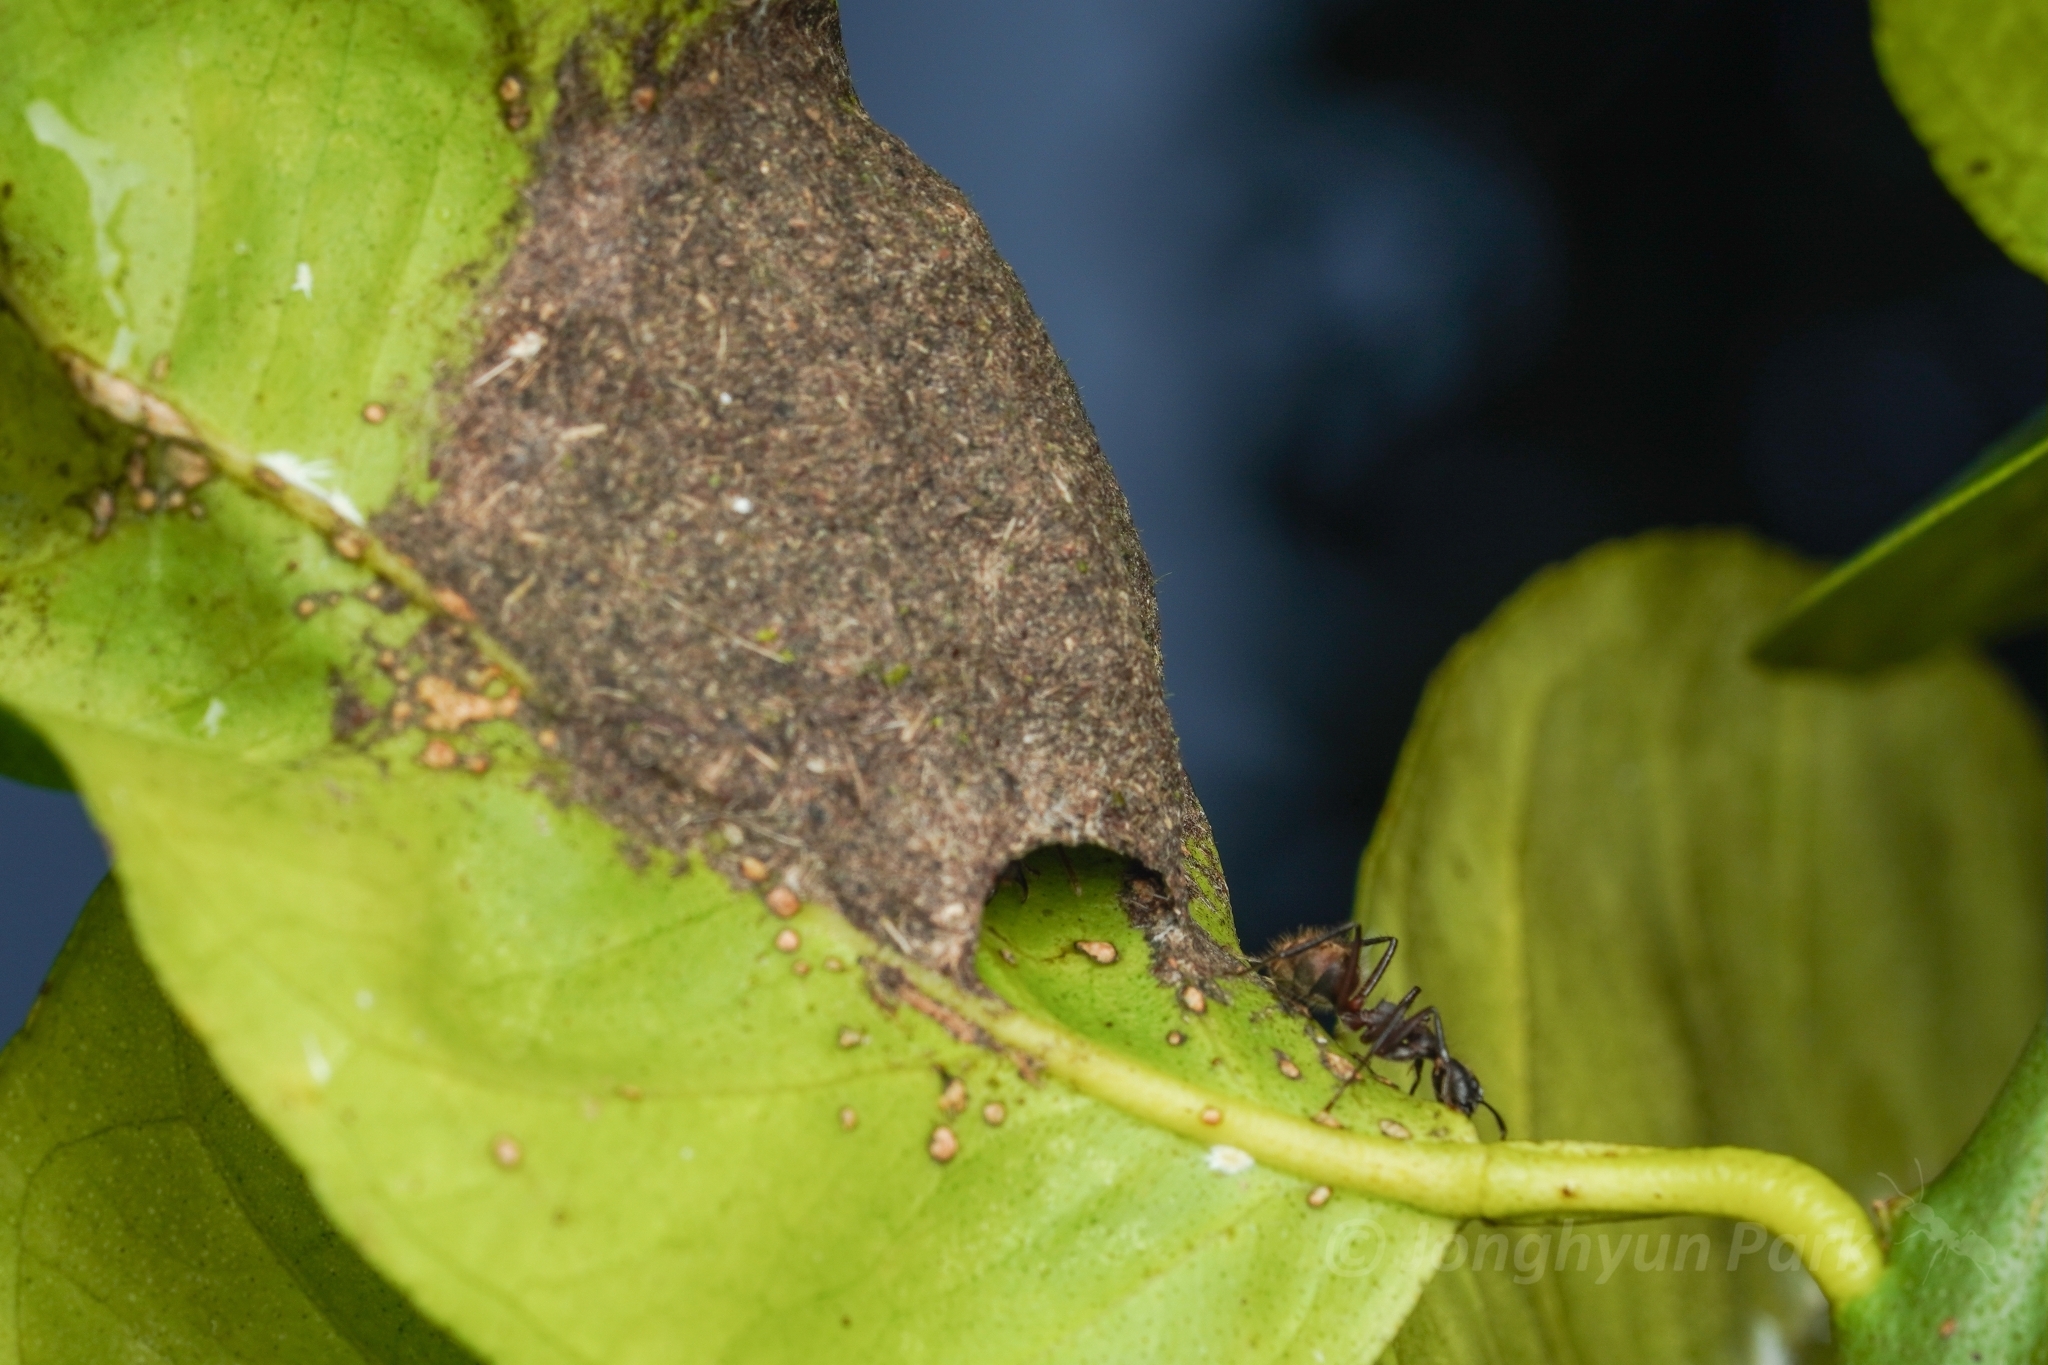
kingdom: Animalia
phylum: Arthropoda
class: Insecta
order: Hymenoptera
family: Formicidae
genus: Dolichoderus
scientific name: Dolichoderus bidens
